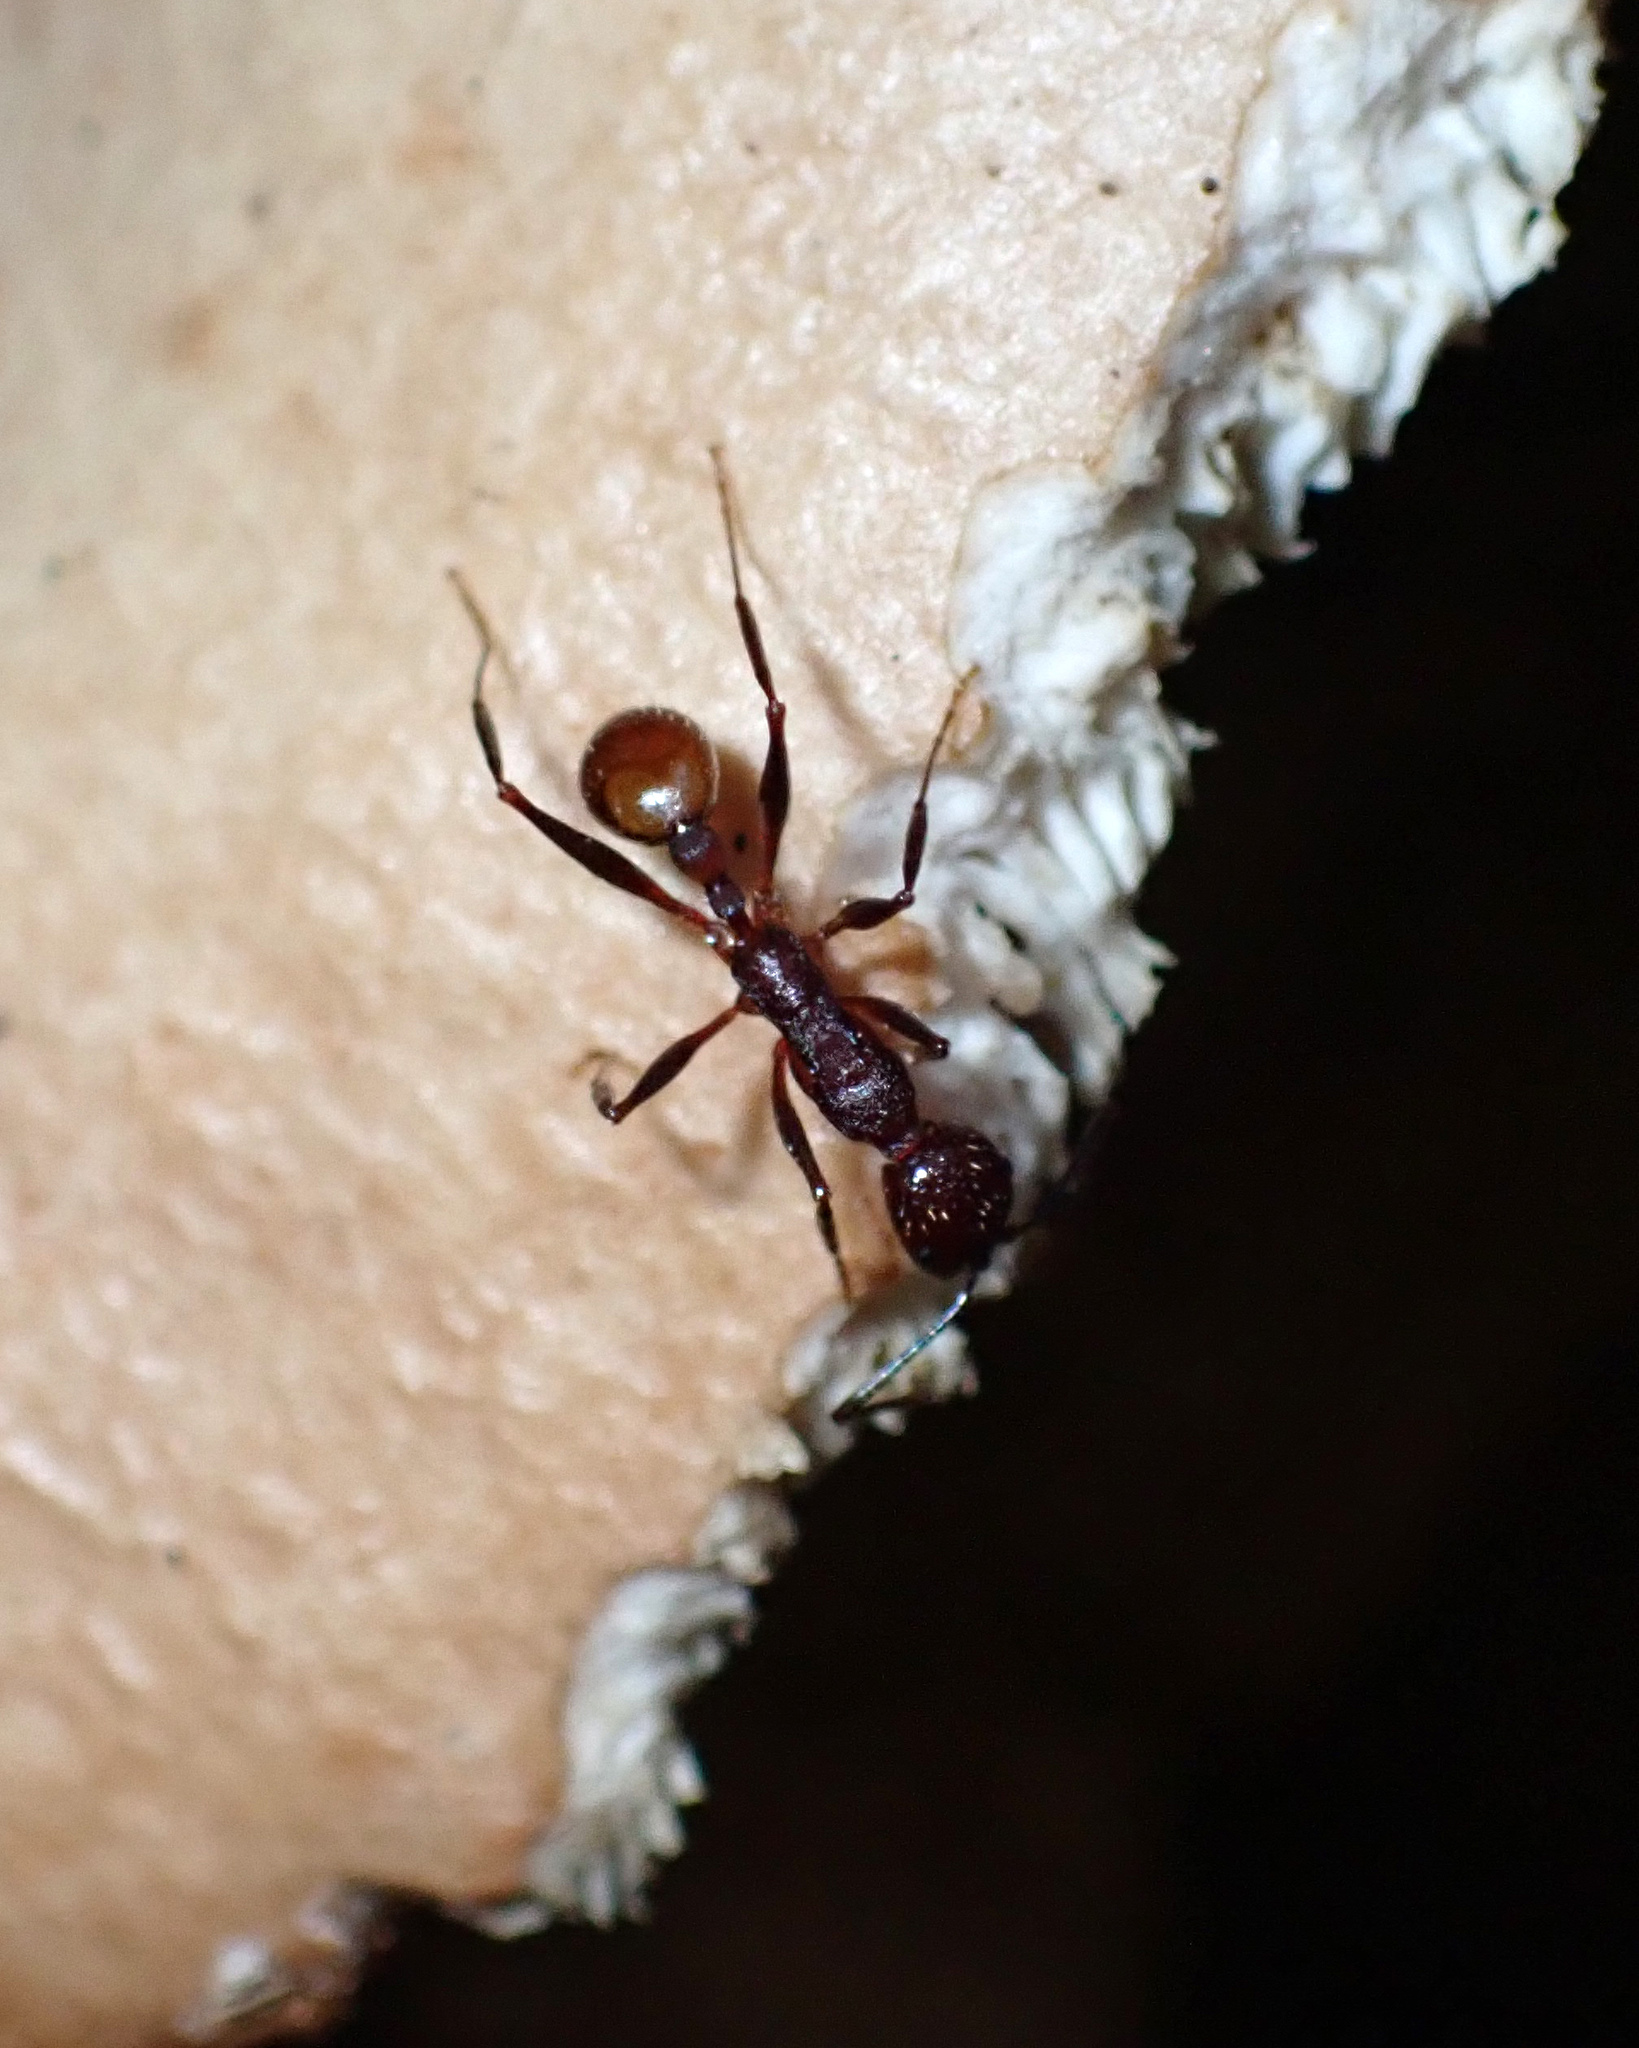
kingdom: Animalia
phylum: Arthropoda
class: Insecta
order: Hymenoptera
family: Formicidae
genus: Aphaenogaster
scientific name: Aphaenogaster lamellidens
